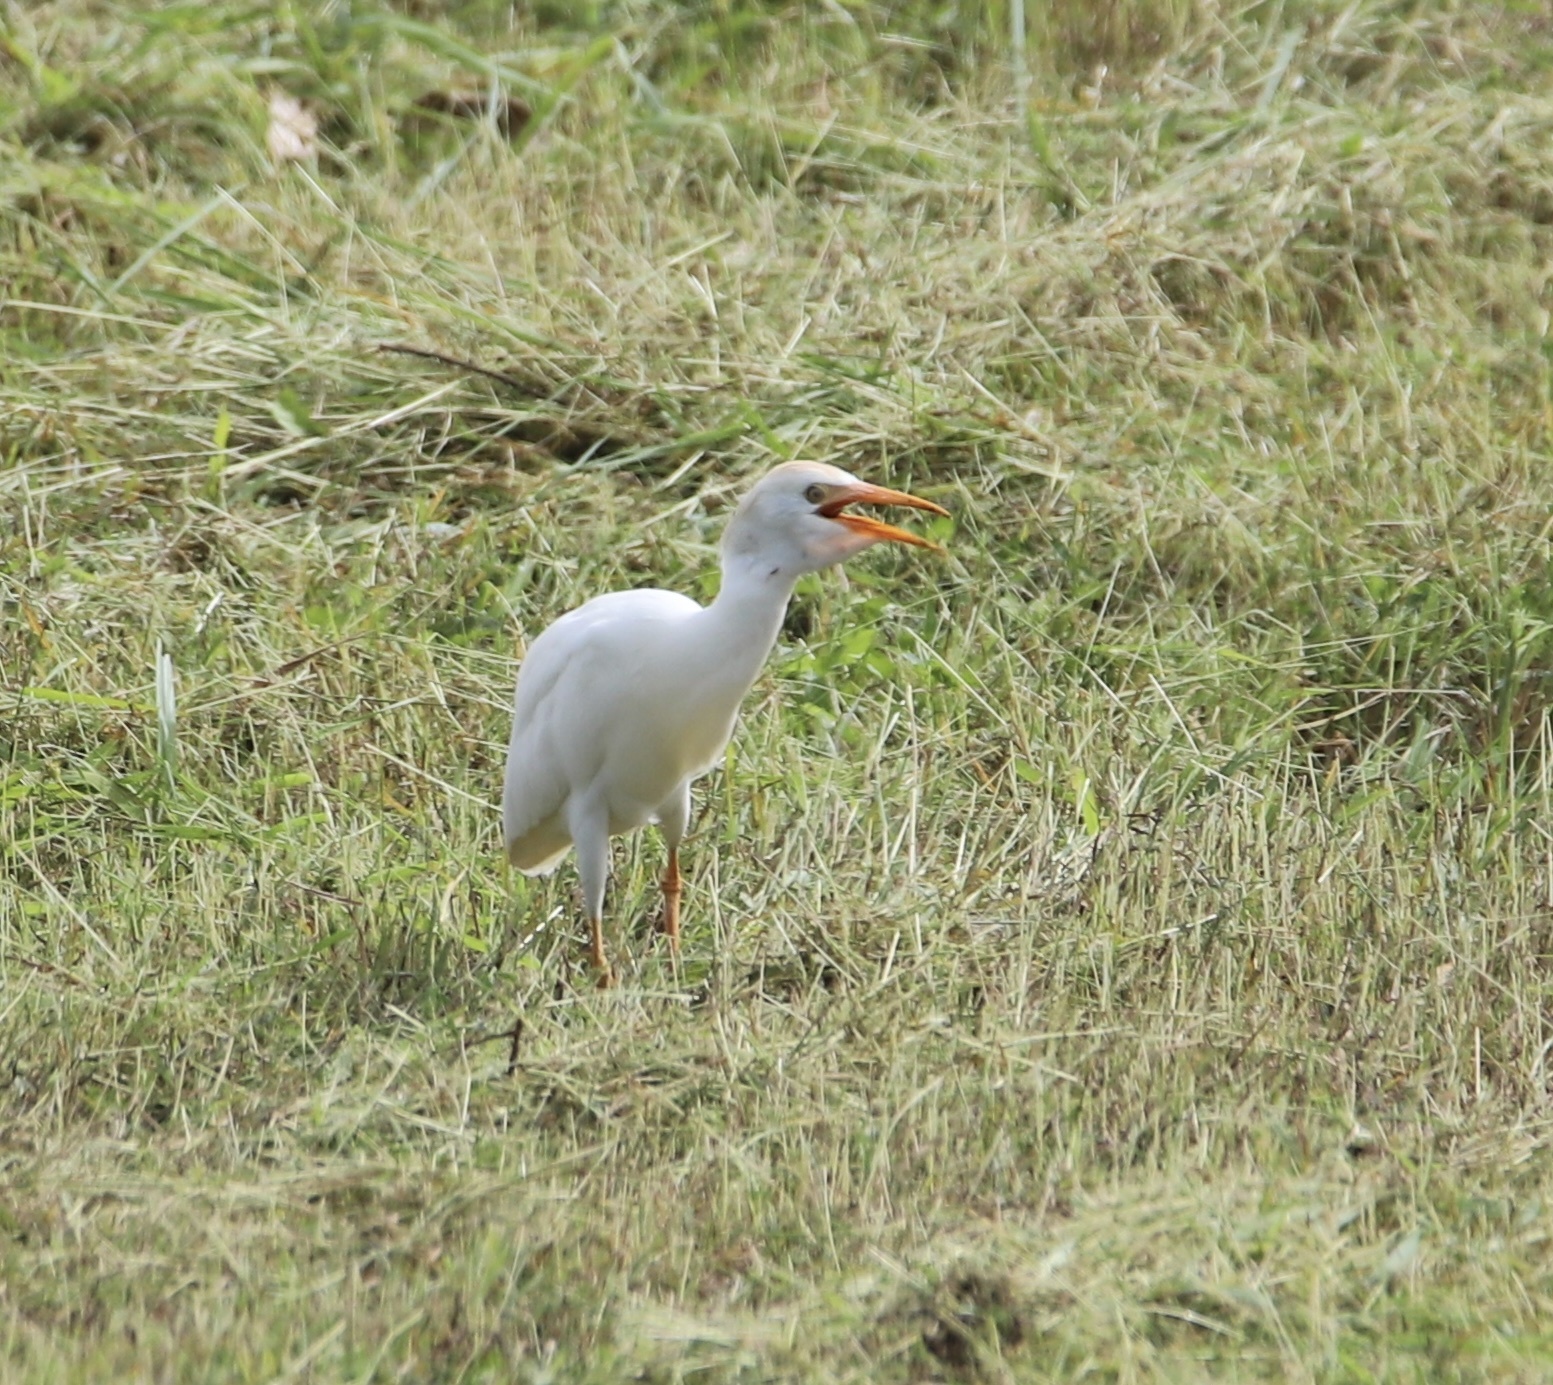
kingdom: Animalia
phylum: Chordata
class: Aves
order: Pelecaniformes
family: Ardeidae
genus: Bubulcus
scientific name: Bubulcus ibis
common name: Cattle egret
